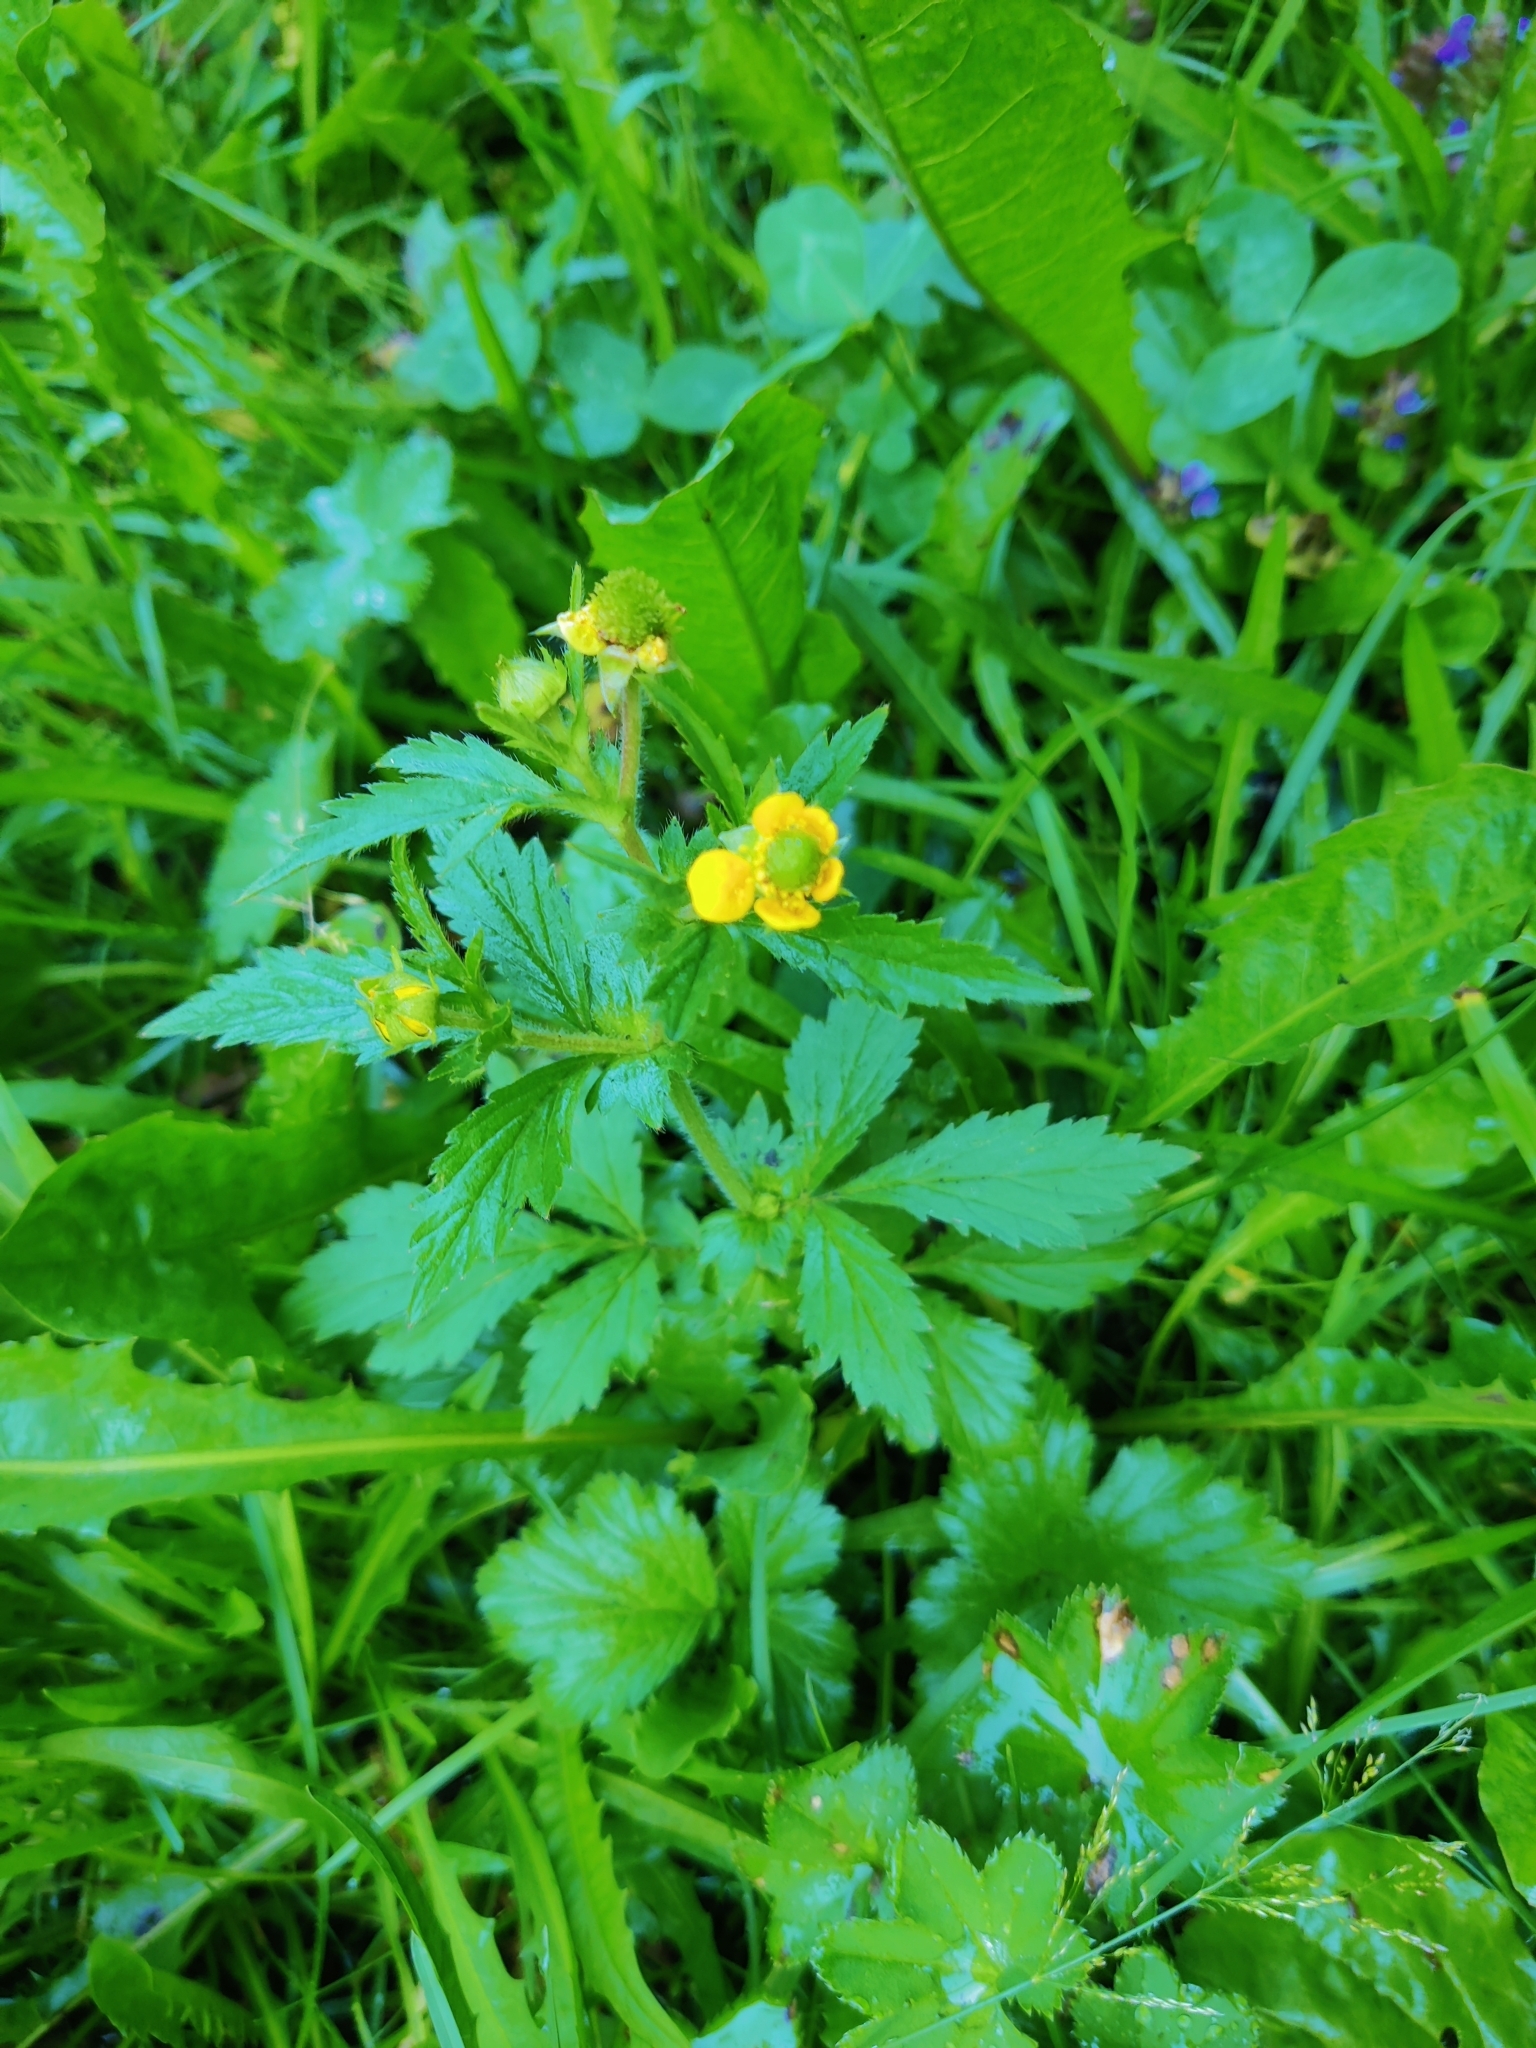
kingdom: Plantae
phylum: Tracheophyta
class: Magnoliopsida
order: Rosales
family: Rosaceae
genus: Geum
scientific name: Geum aleppicum
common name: Yellow avens
